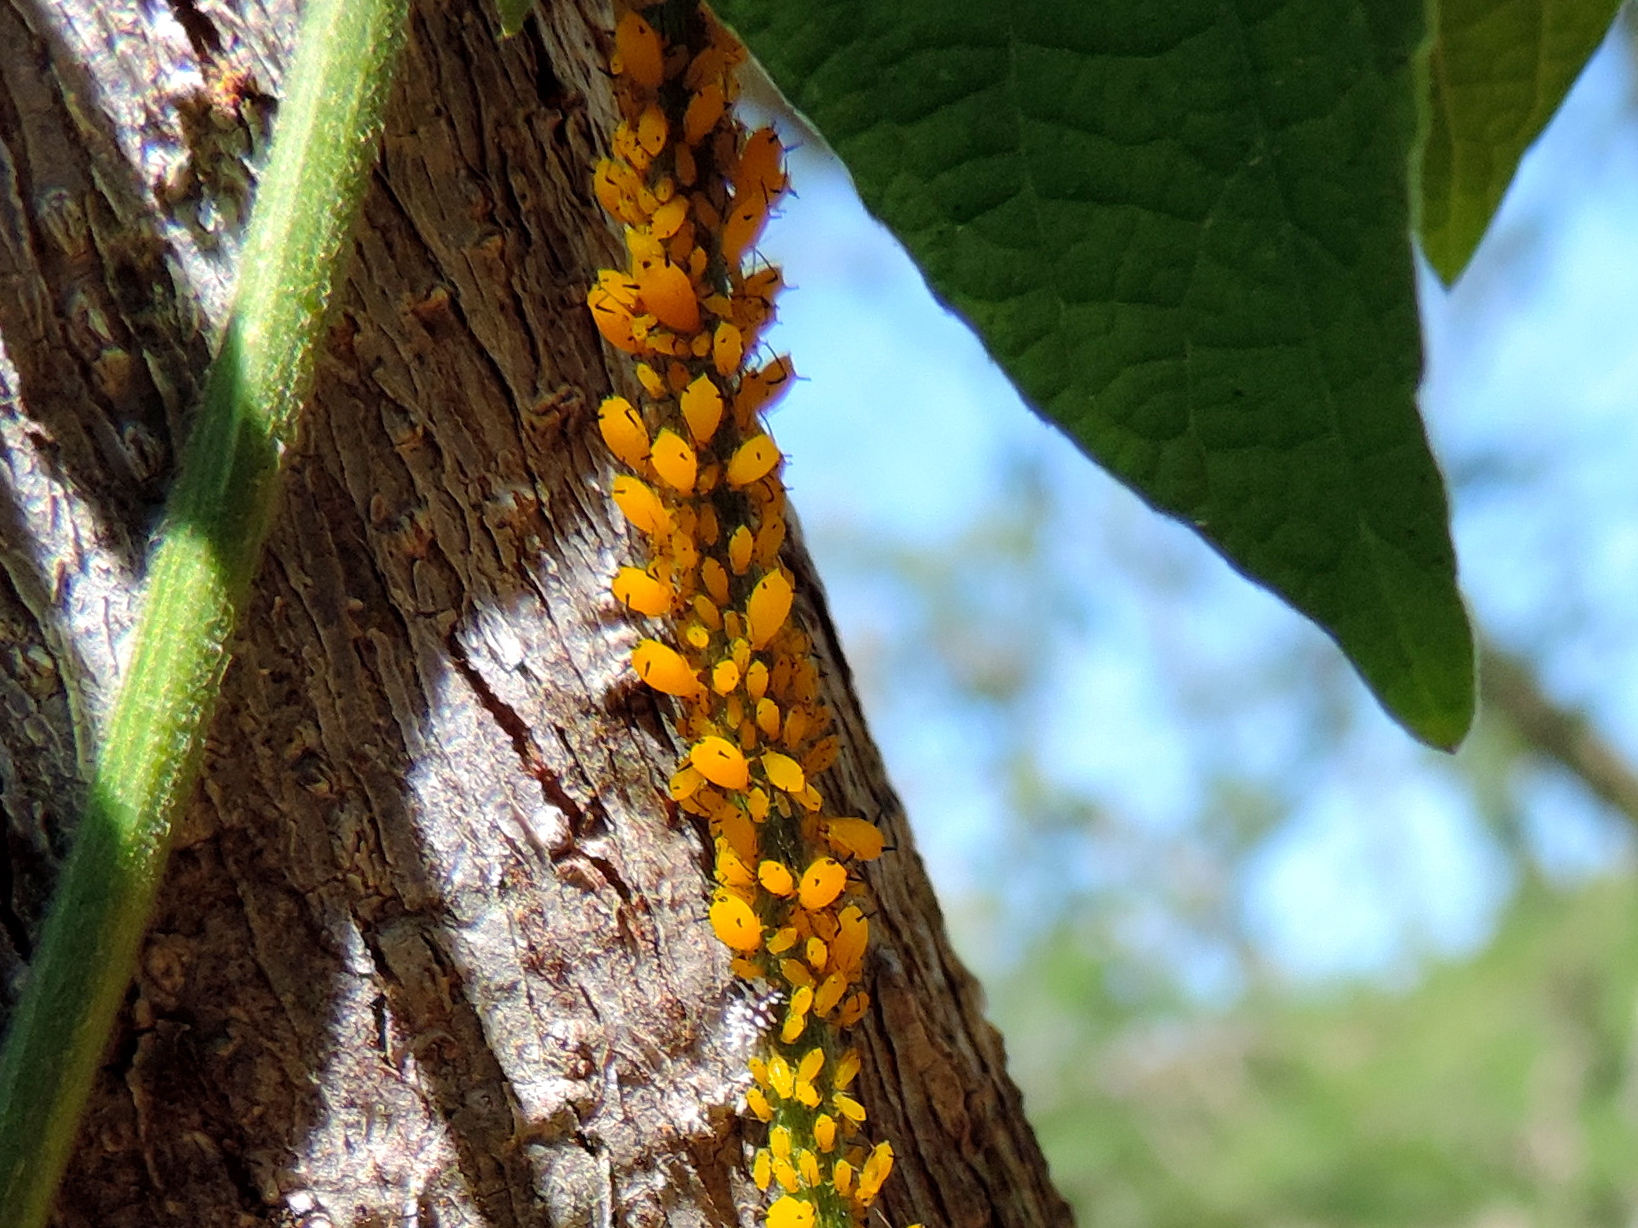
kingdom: Animalia
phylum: Arthropoda
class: Insecta
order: Hemiptera
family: Aphididae
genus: Aphis
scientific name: Aphis nerii
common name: Oleander aphid
